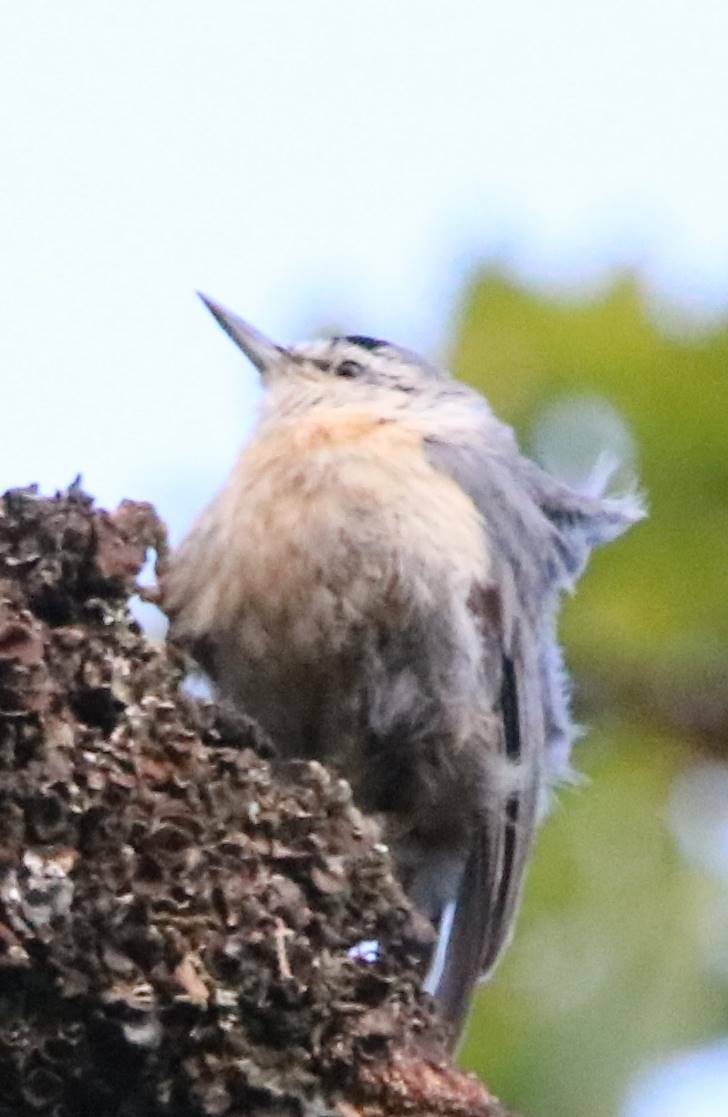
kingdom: Animalia
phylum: Chordata
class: Aves
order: Passeriformes
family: Sittidae
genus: Sitta
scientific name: Sitta ledanti
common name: Algerian nuthatch
